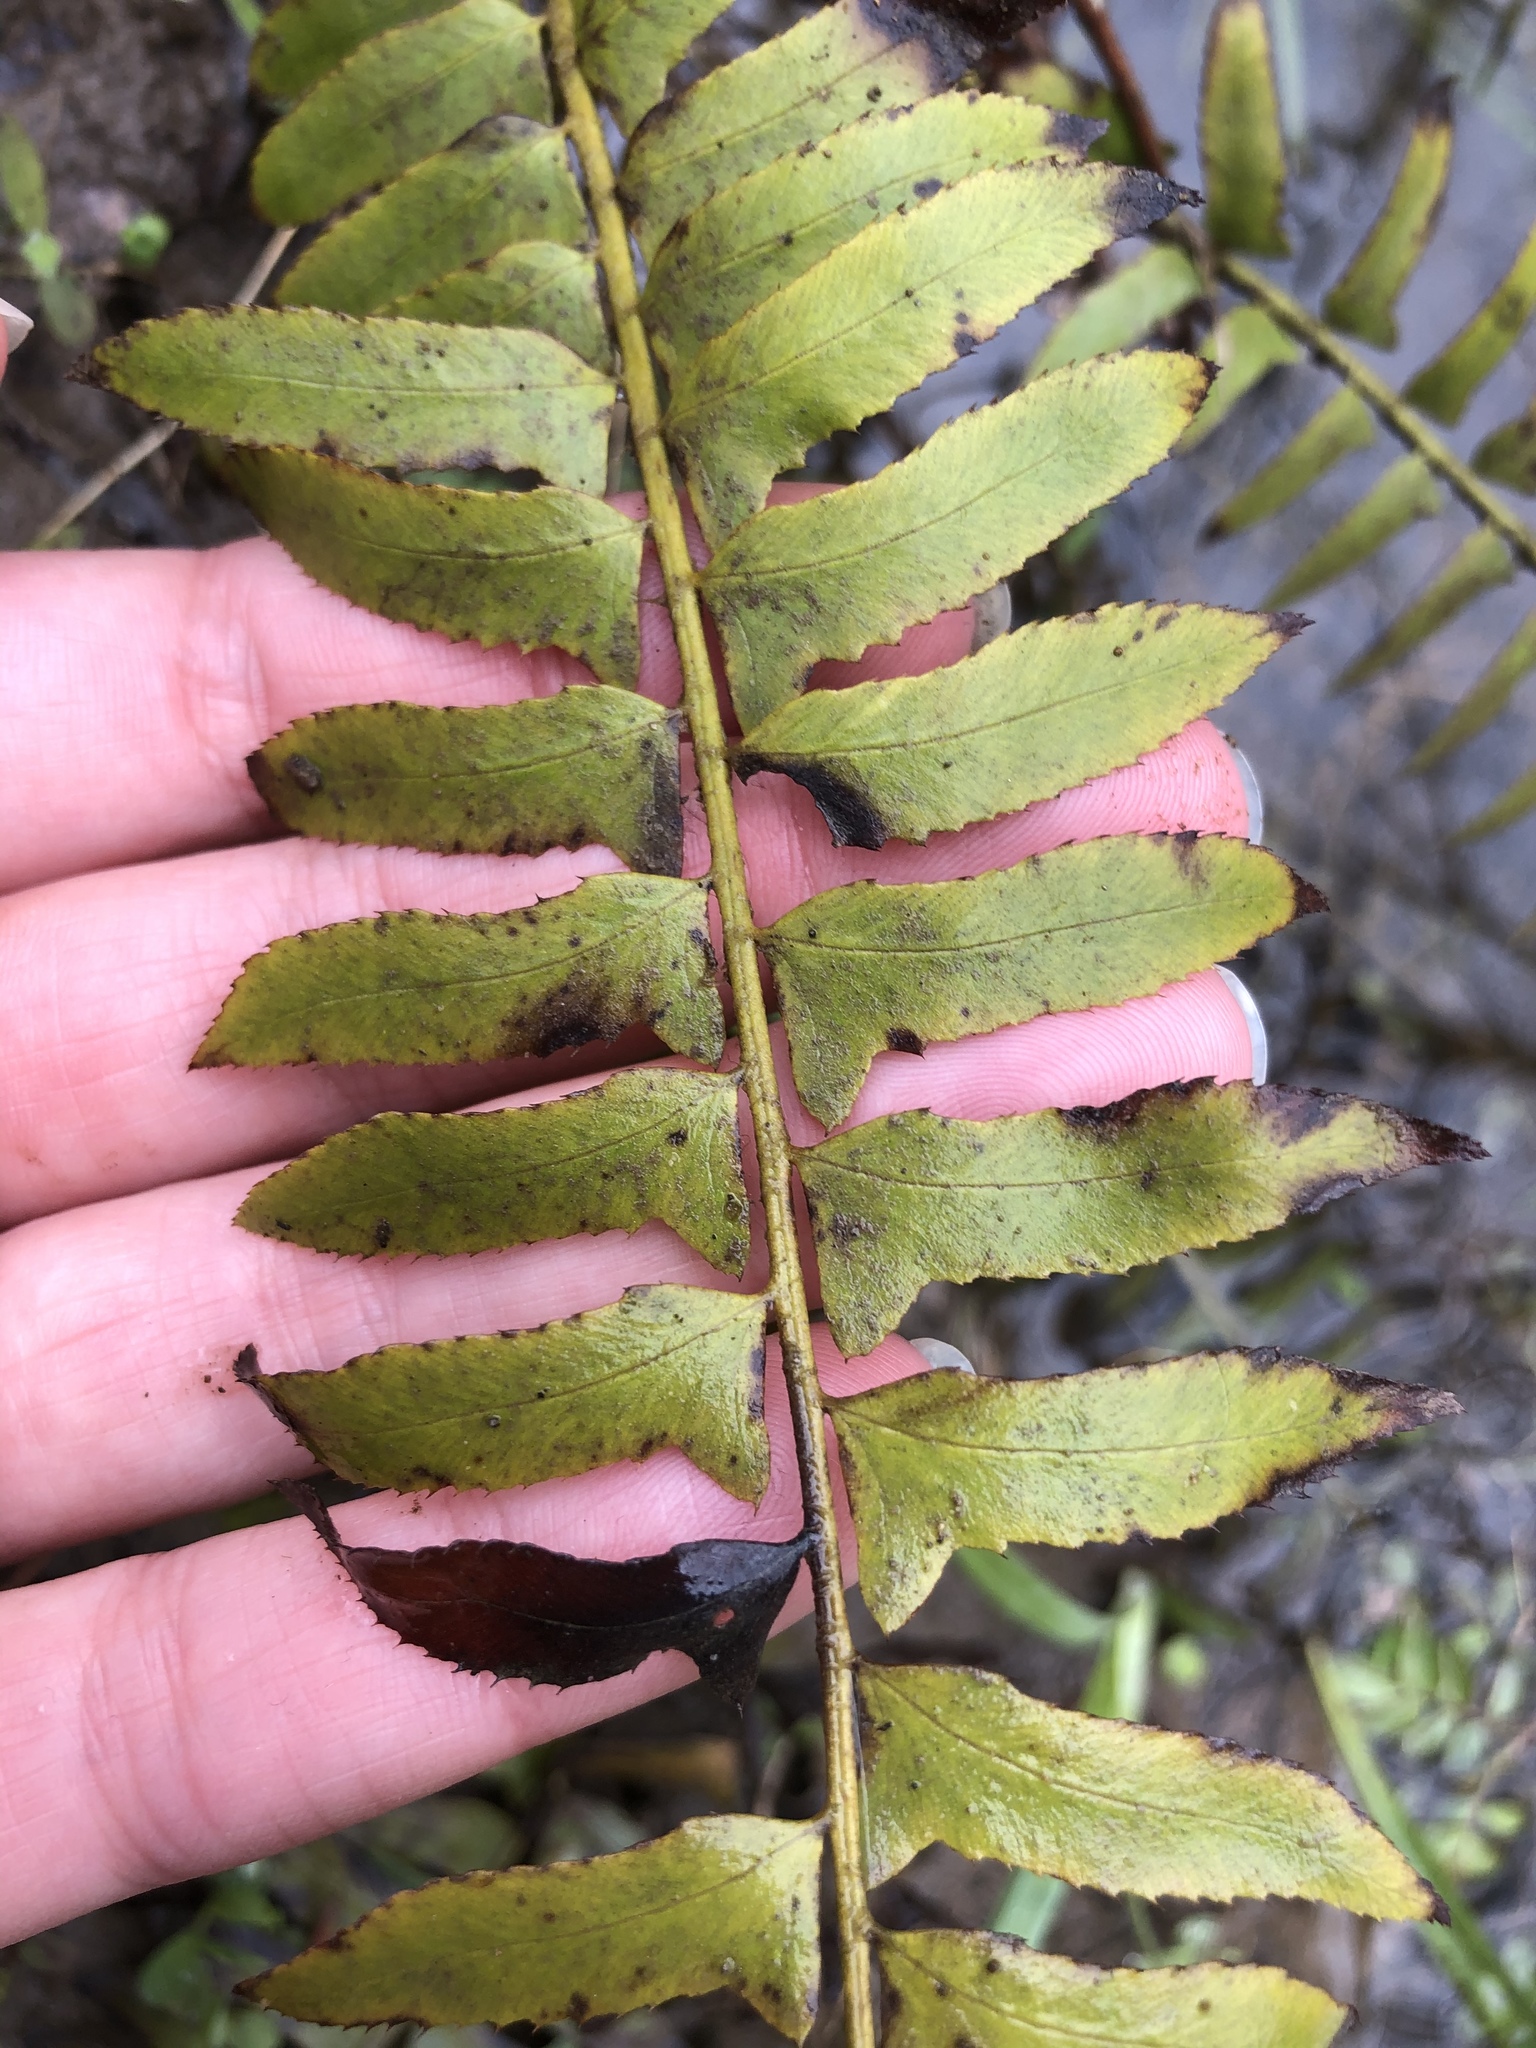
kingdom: Plantae
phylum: Tracheophyta
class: Polypodiopsida
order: Polypodiales
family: Dryopteridaceae
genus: Polystichum
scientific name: Polystichum acrostichoides
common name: Christmas fern
